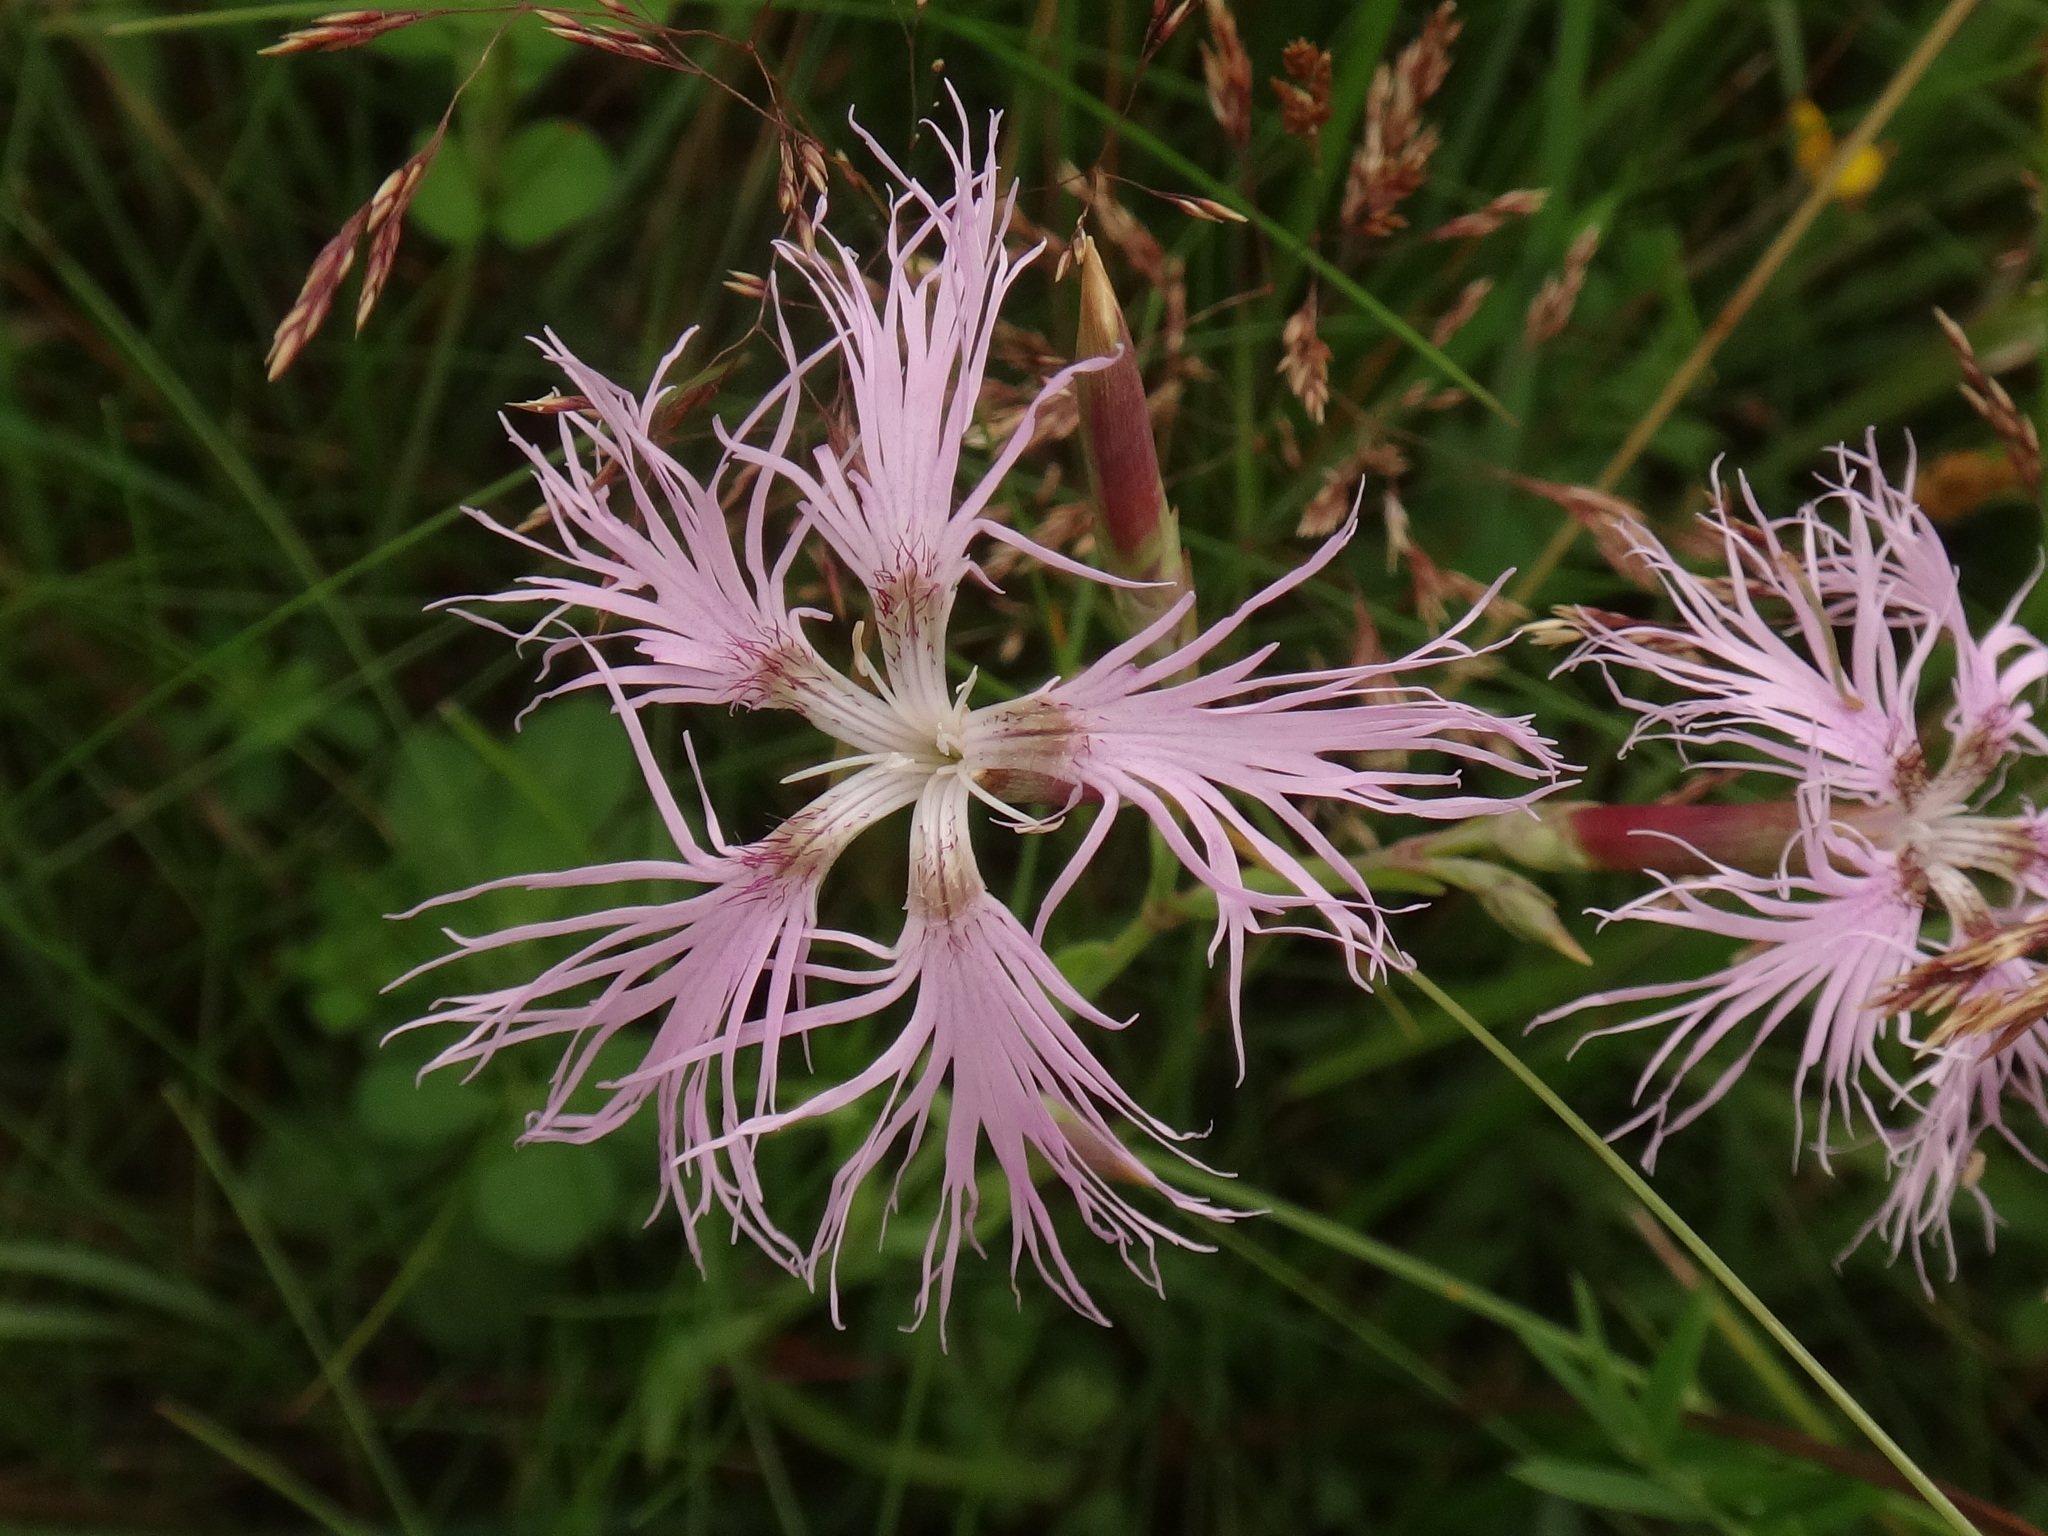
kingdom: Plantae
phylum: Tracheophyta
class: Magnoliopsida
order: Caryophyllales
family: Caryophyllaceae
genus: Dianthus
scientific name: Dianthus superbus
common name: Fringed pink
